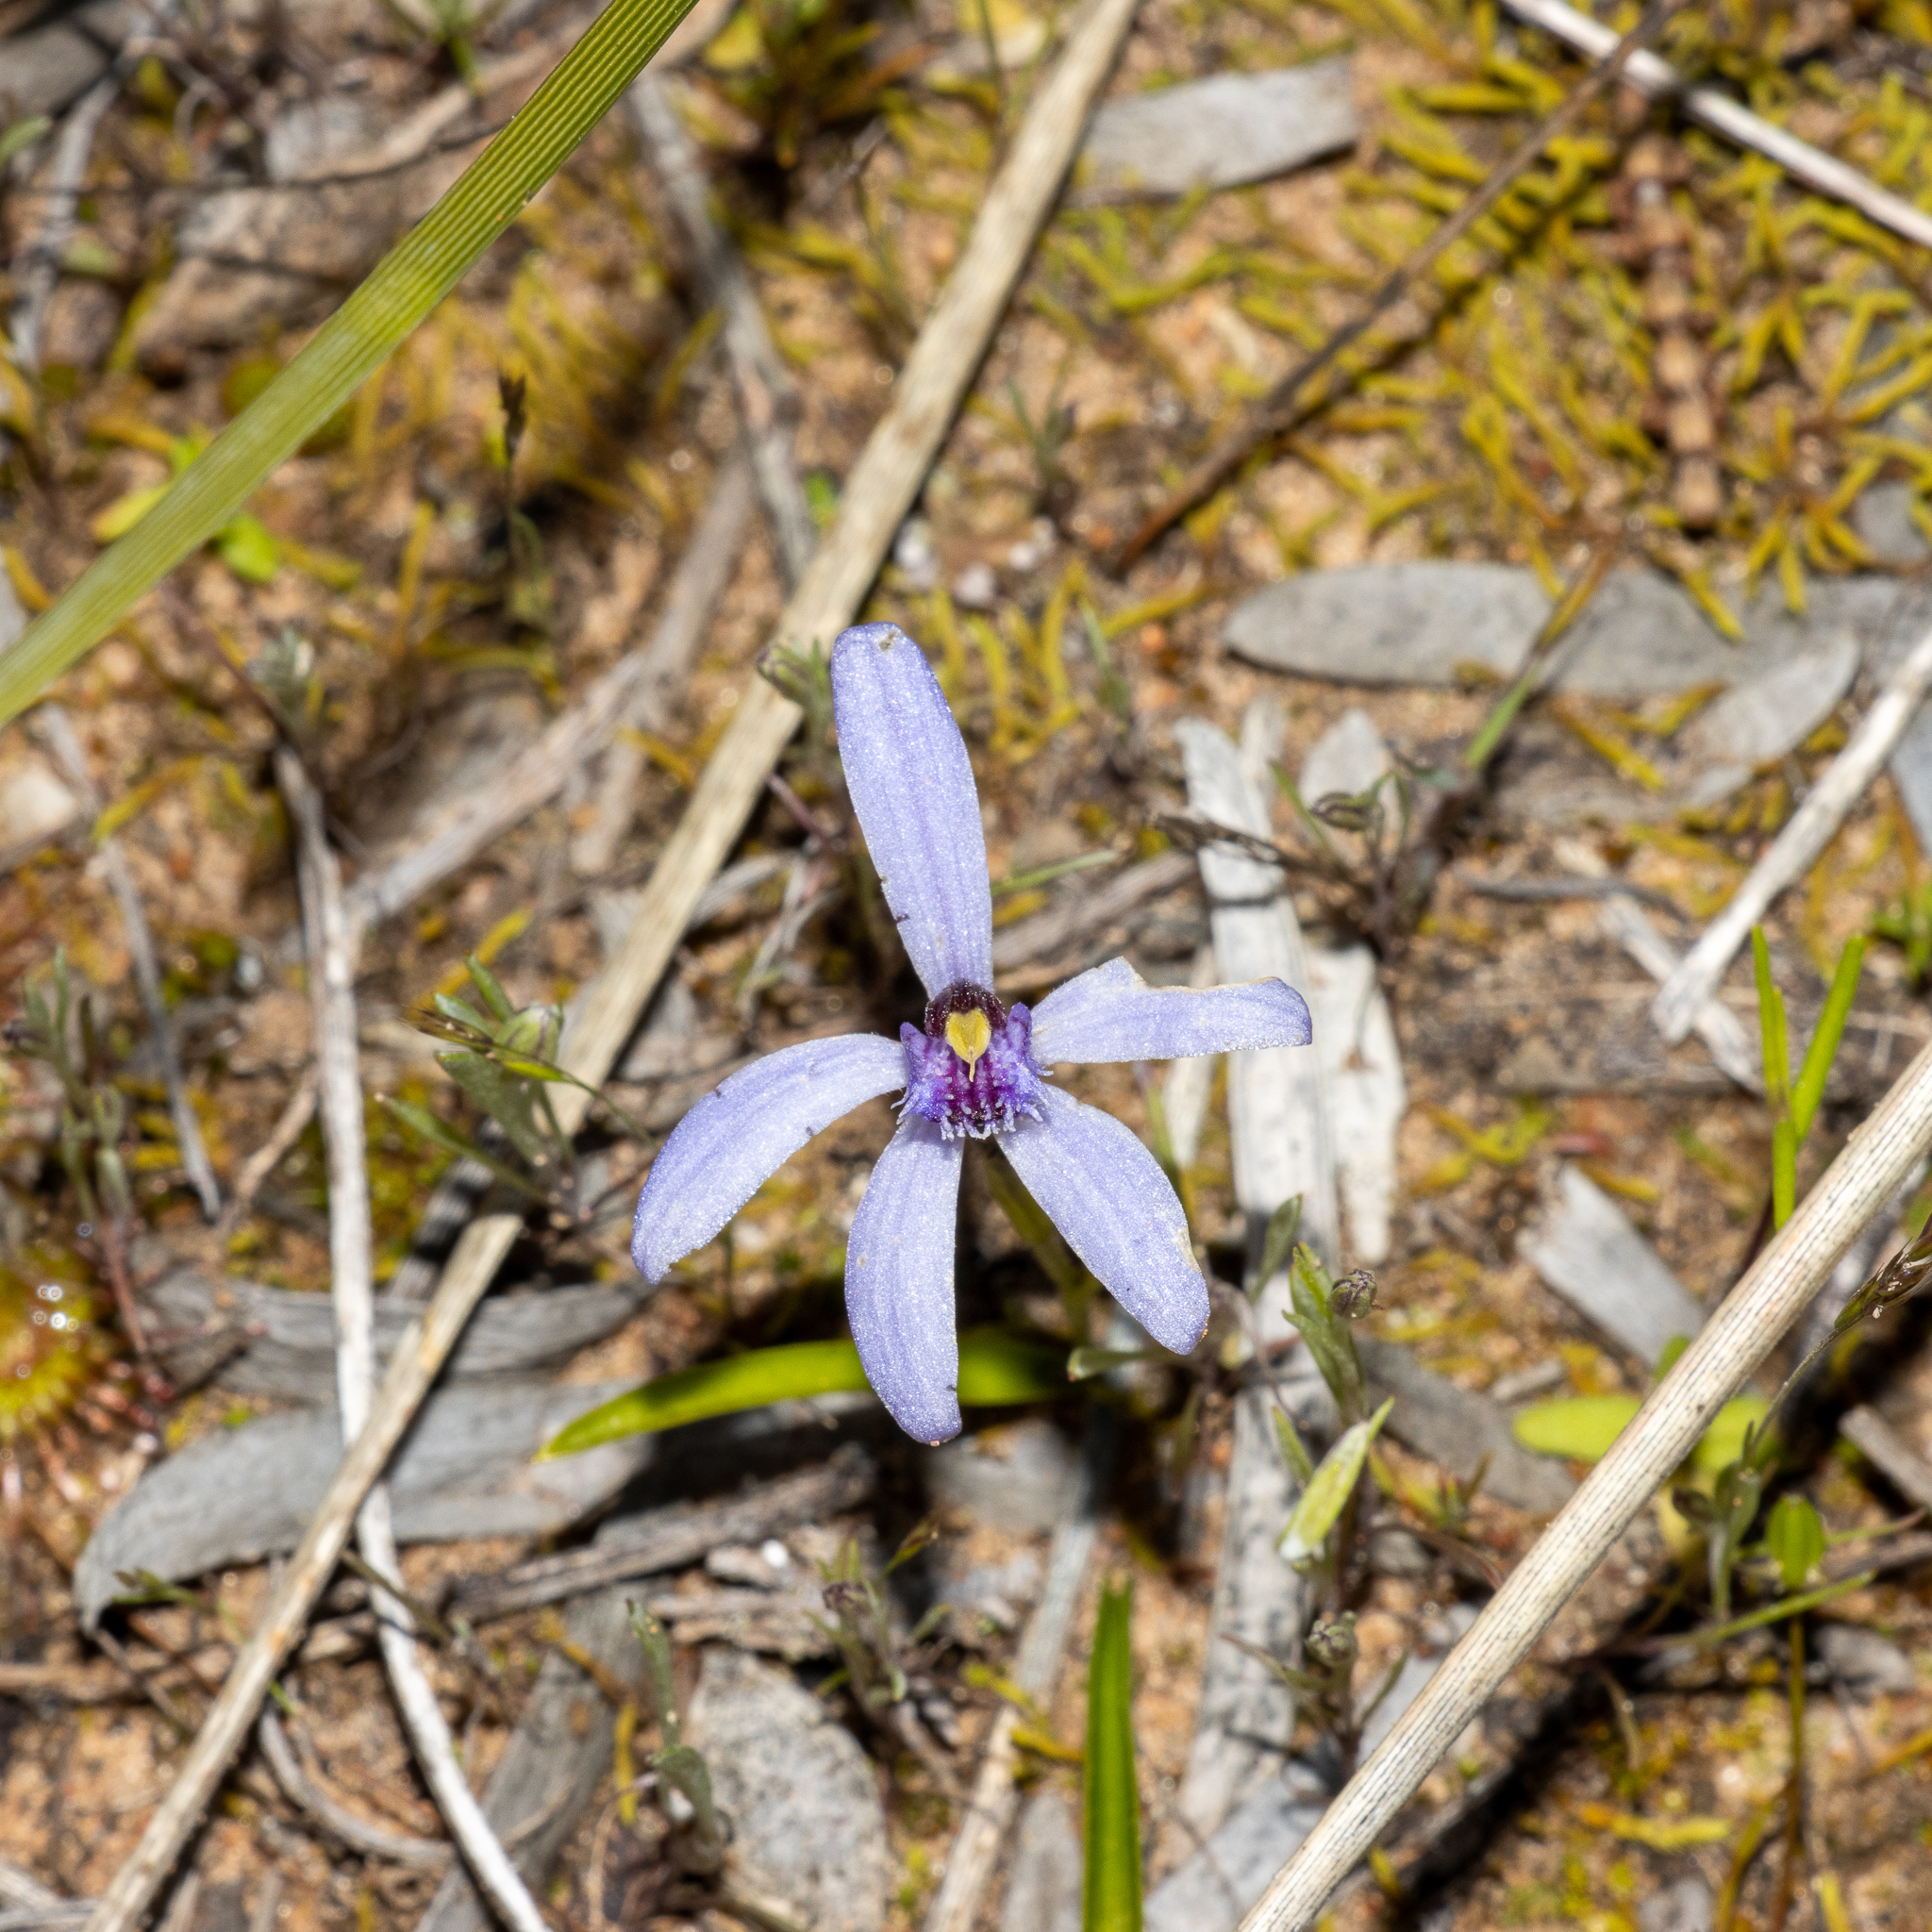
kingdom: Plantae
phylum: Tracheophyta
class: Liliopsida
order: Asparagales
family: Orchidaceae
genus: Pheladenia
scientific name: Pheladenia deformis
